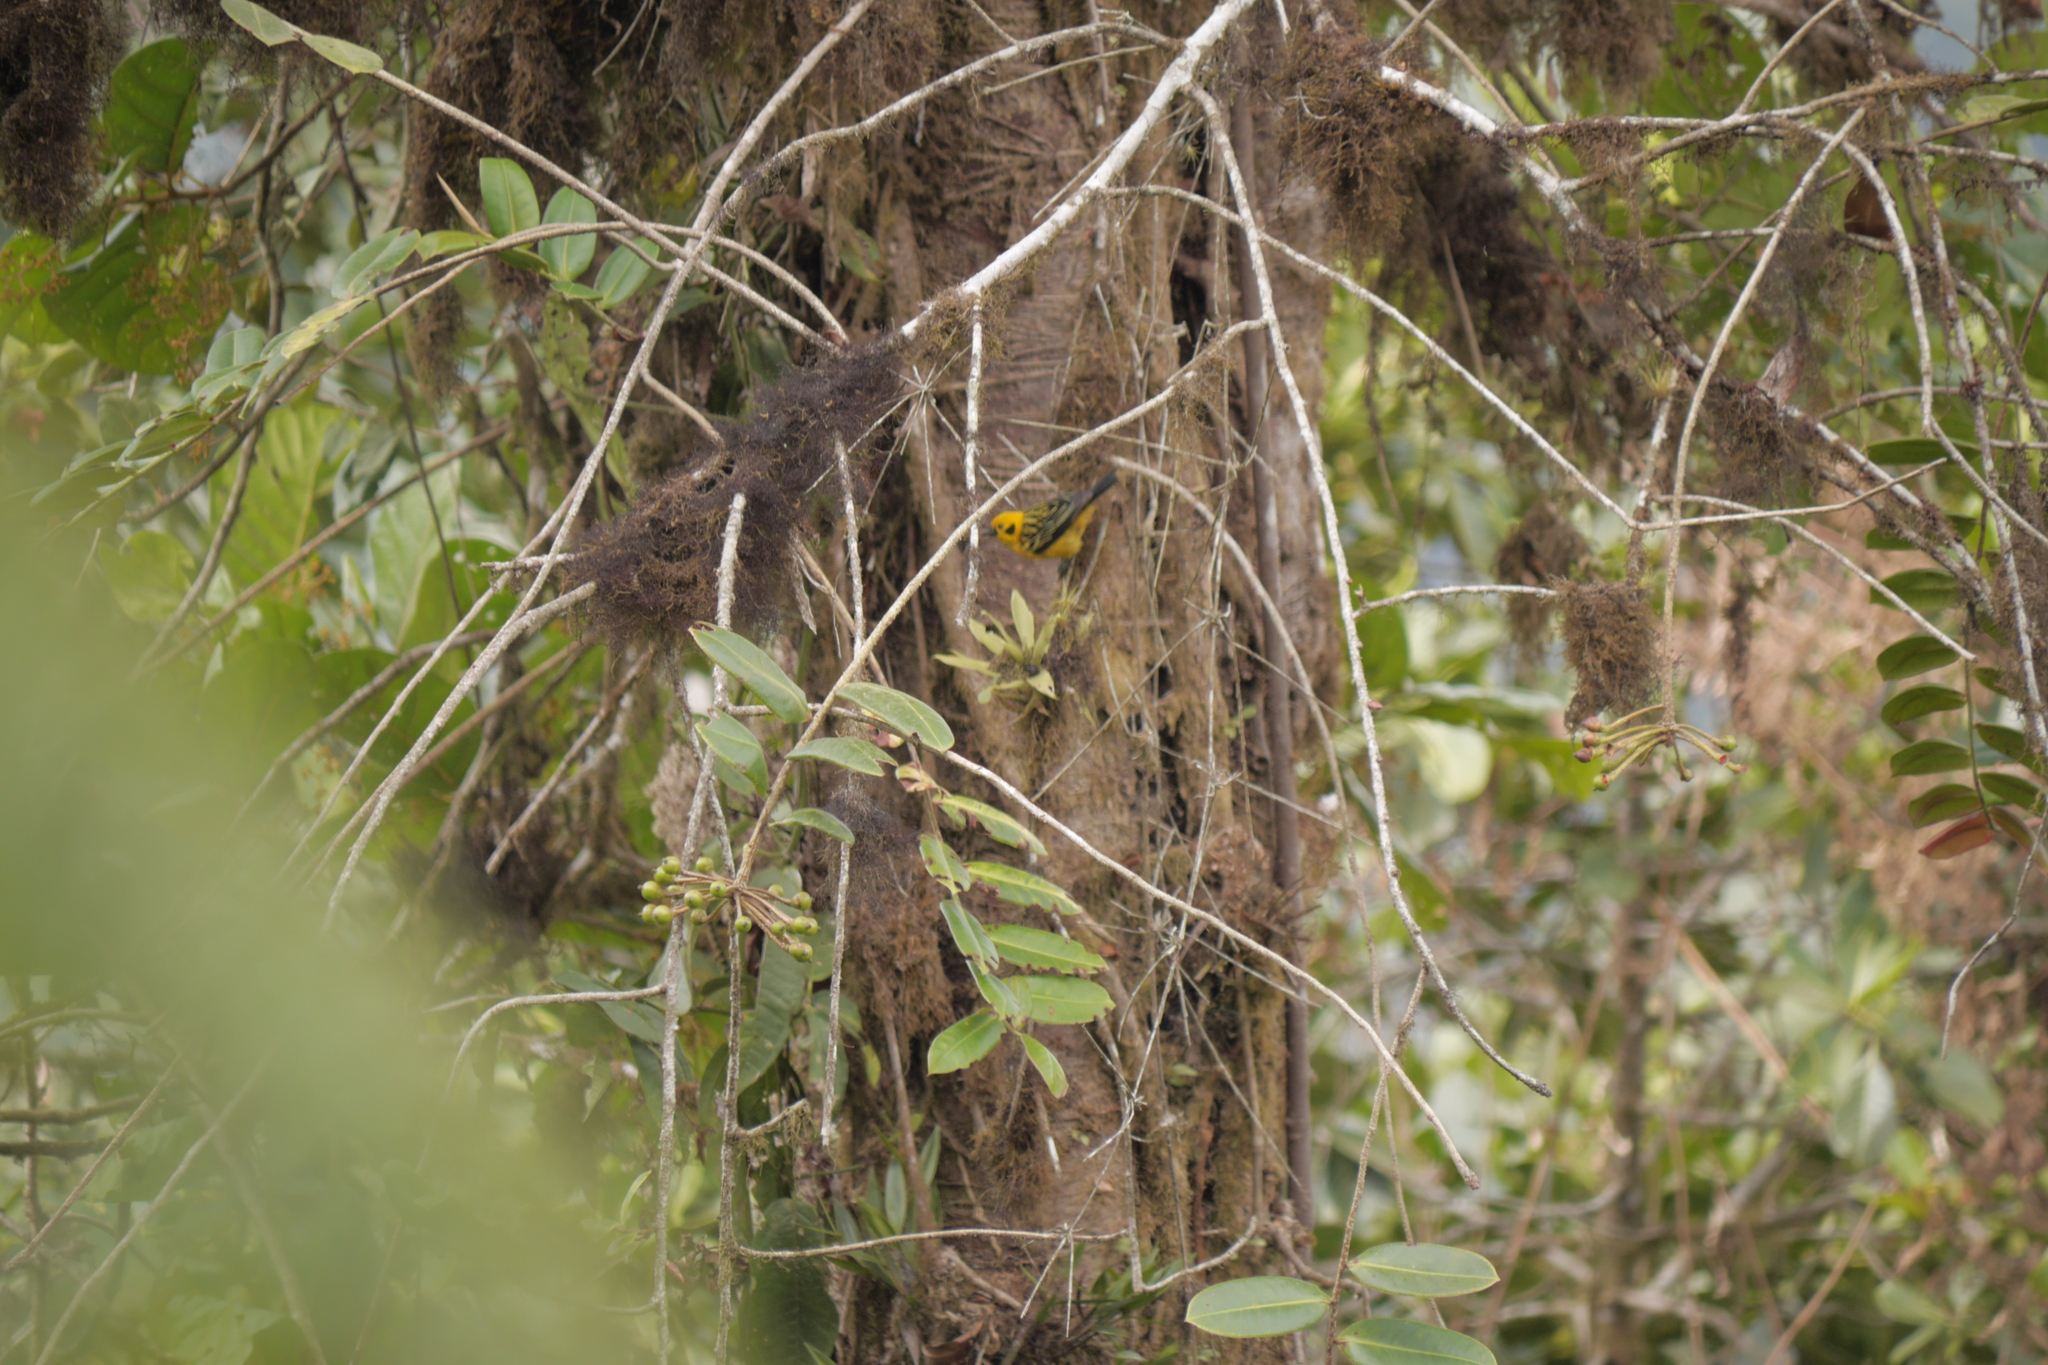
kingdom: Animalia
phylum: Chordata
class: Aves
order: Passeriformes
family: Thraupidae
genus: Tangara
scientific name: Tangara arthus
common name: Golden tanager
